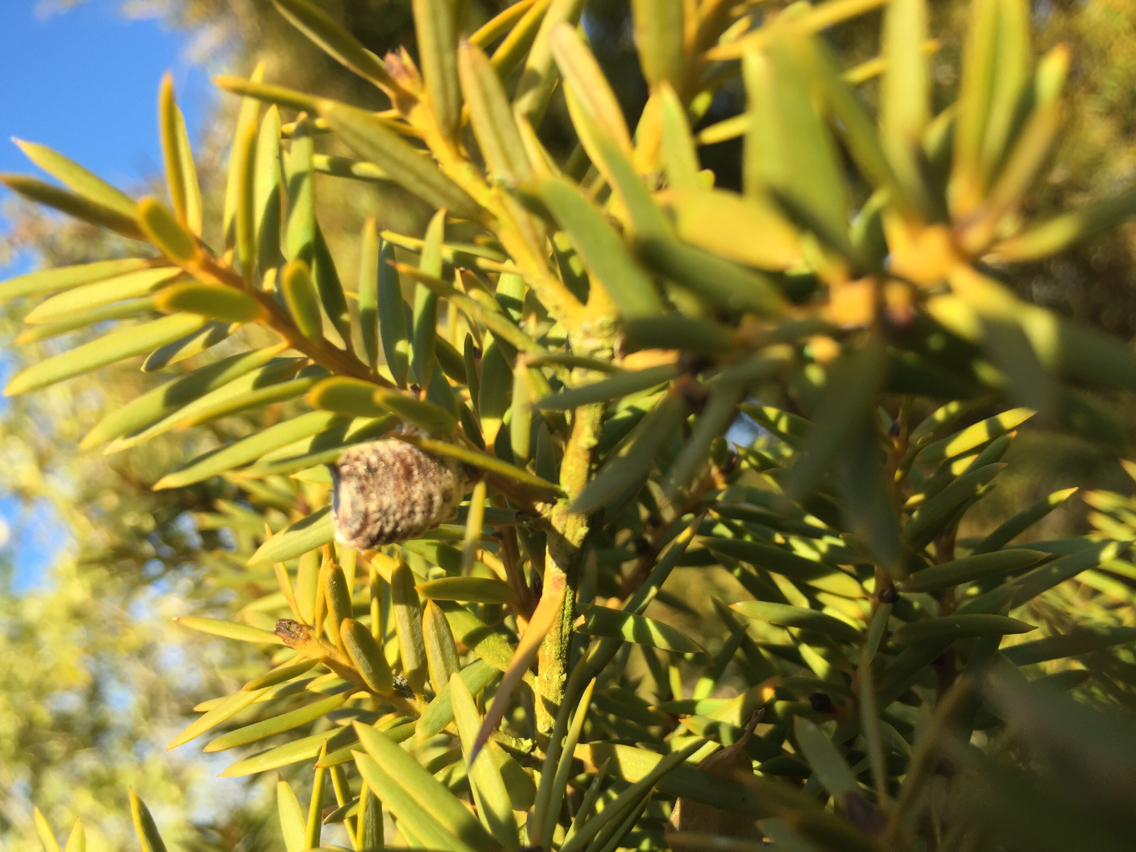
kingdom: Animalia
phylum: Arthropoda
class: Insecta
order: Mantodea
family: Mantidae
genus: Orthodera
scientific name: Orthodera novaezealandiae
